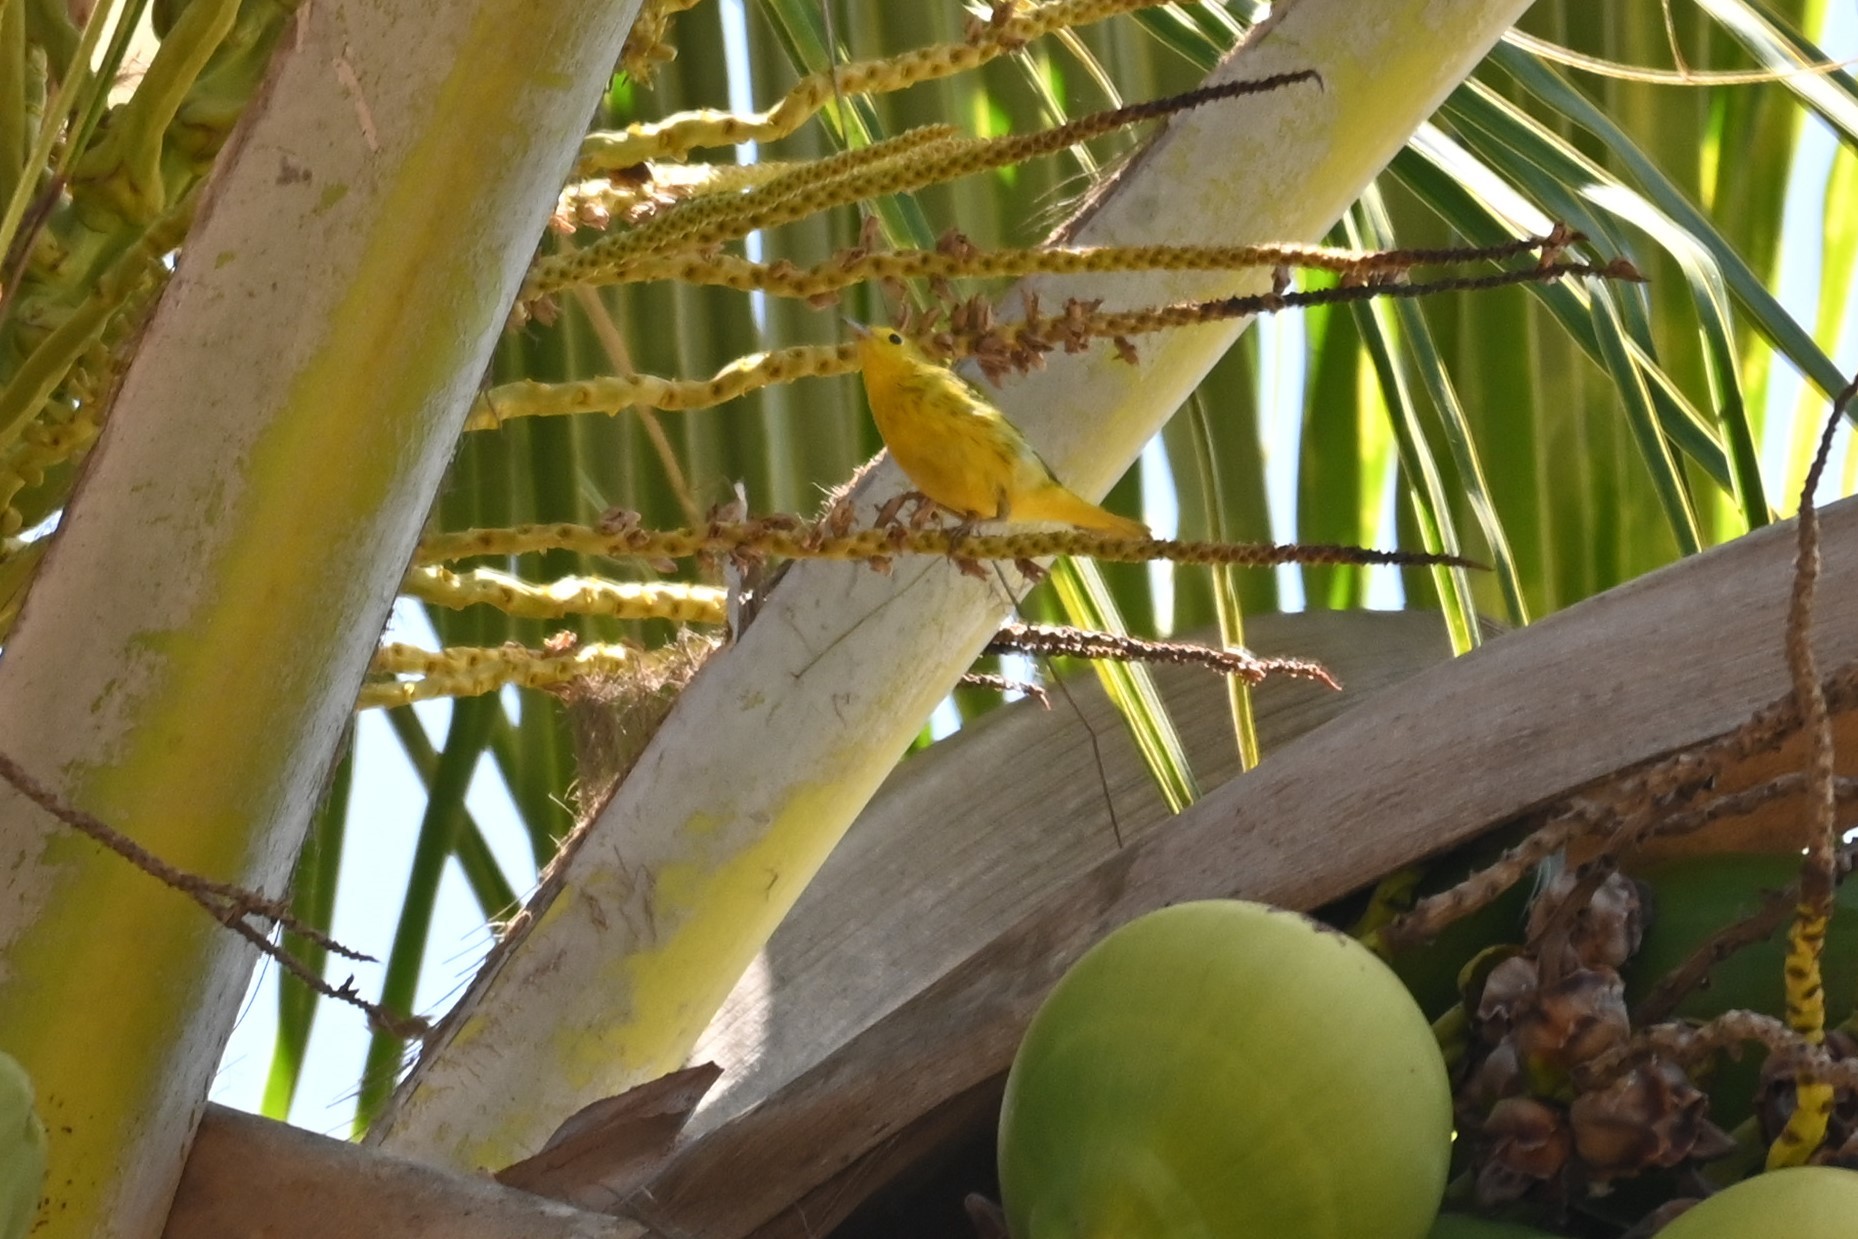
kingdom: Animalia
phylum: Chordata
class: Aves
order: Passeriformes
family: Parulidae
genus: Setophaga
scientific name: Setophaga petechia
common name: Yellow warbler
